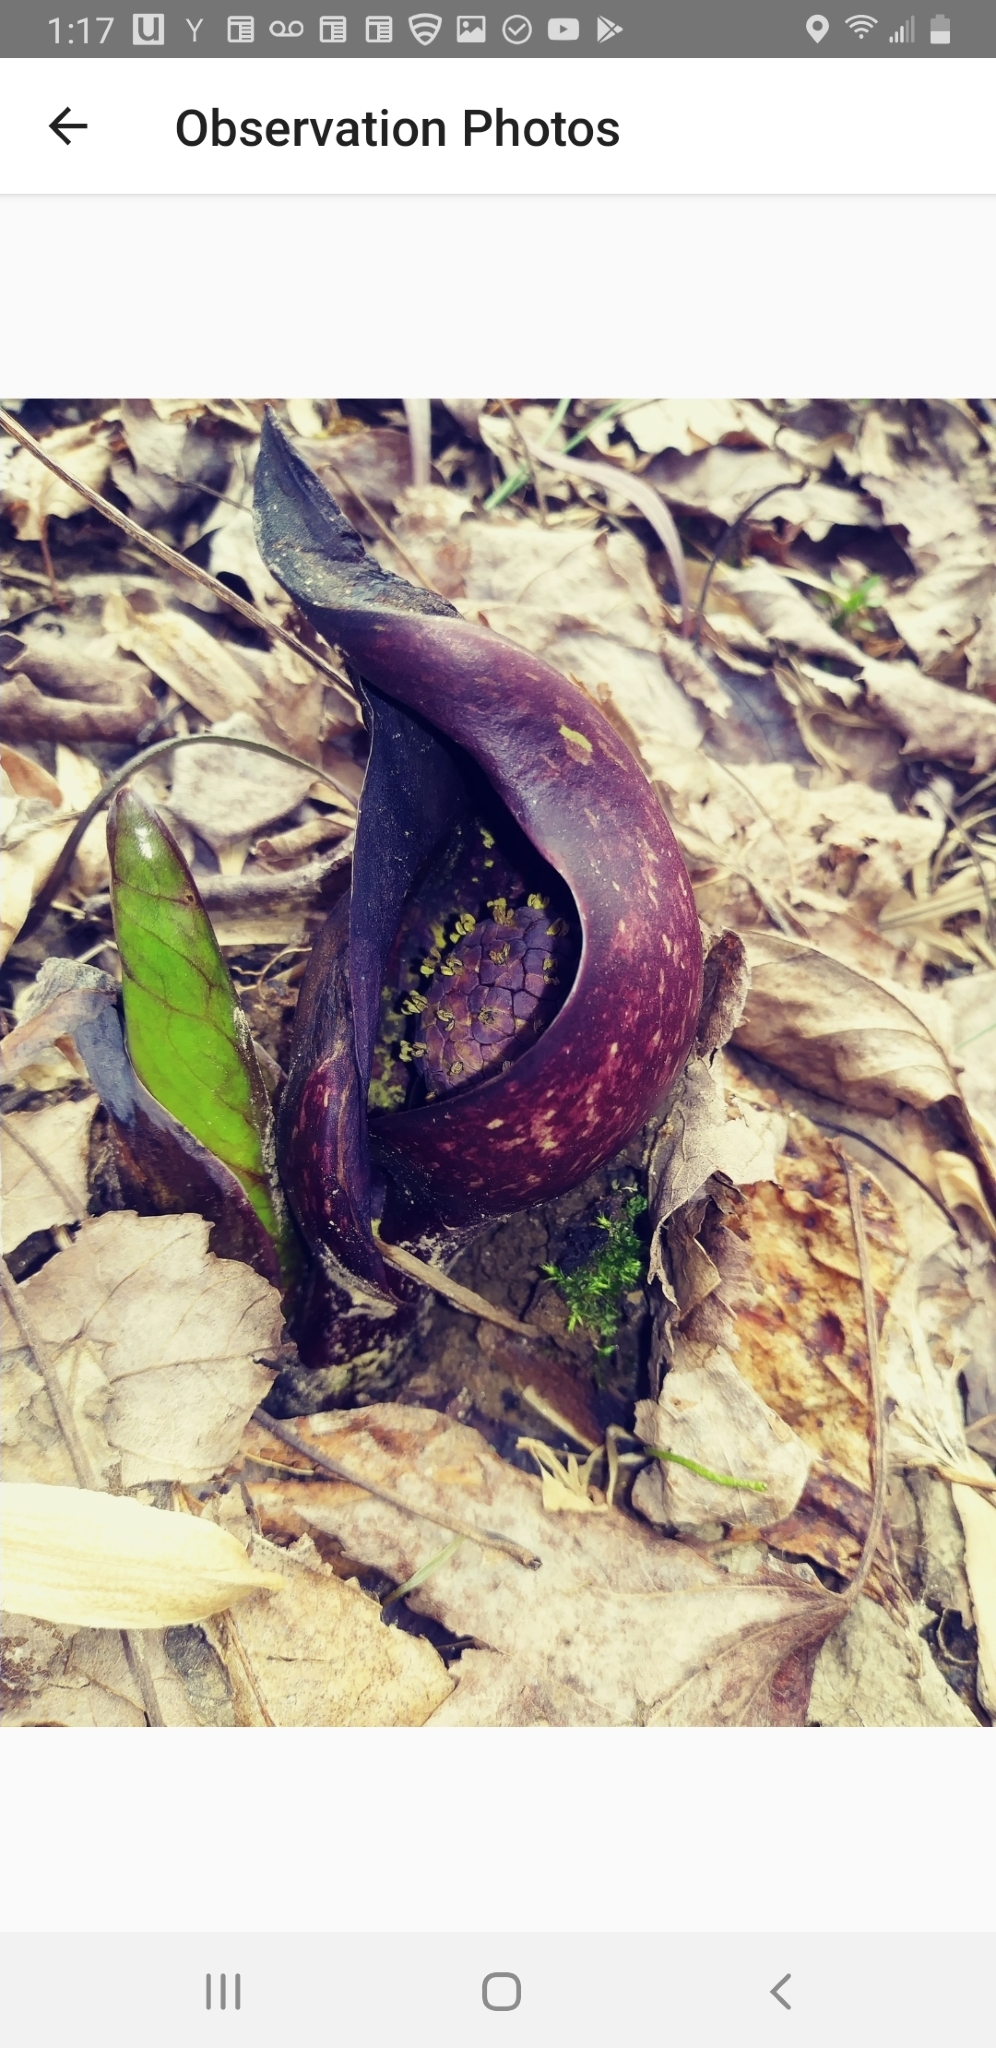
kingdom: Plantae
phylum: Tracheophyta
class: Liliopsida
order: Alismatales
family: Araceae
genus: Symplocarpus
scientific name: Symplocarpus foetidus
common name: Eastern skunk cabbage
